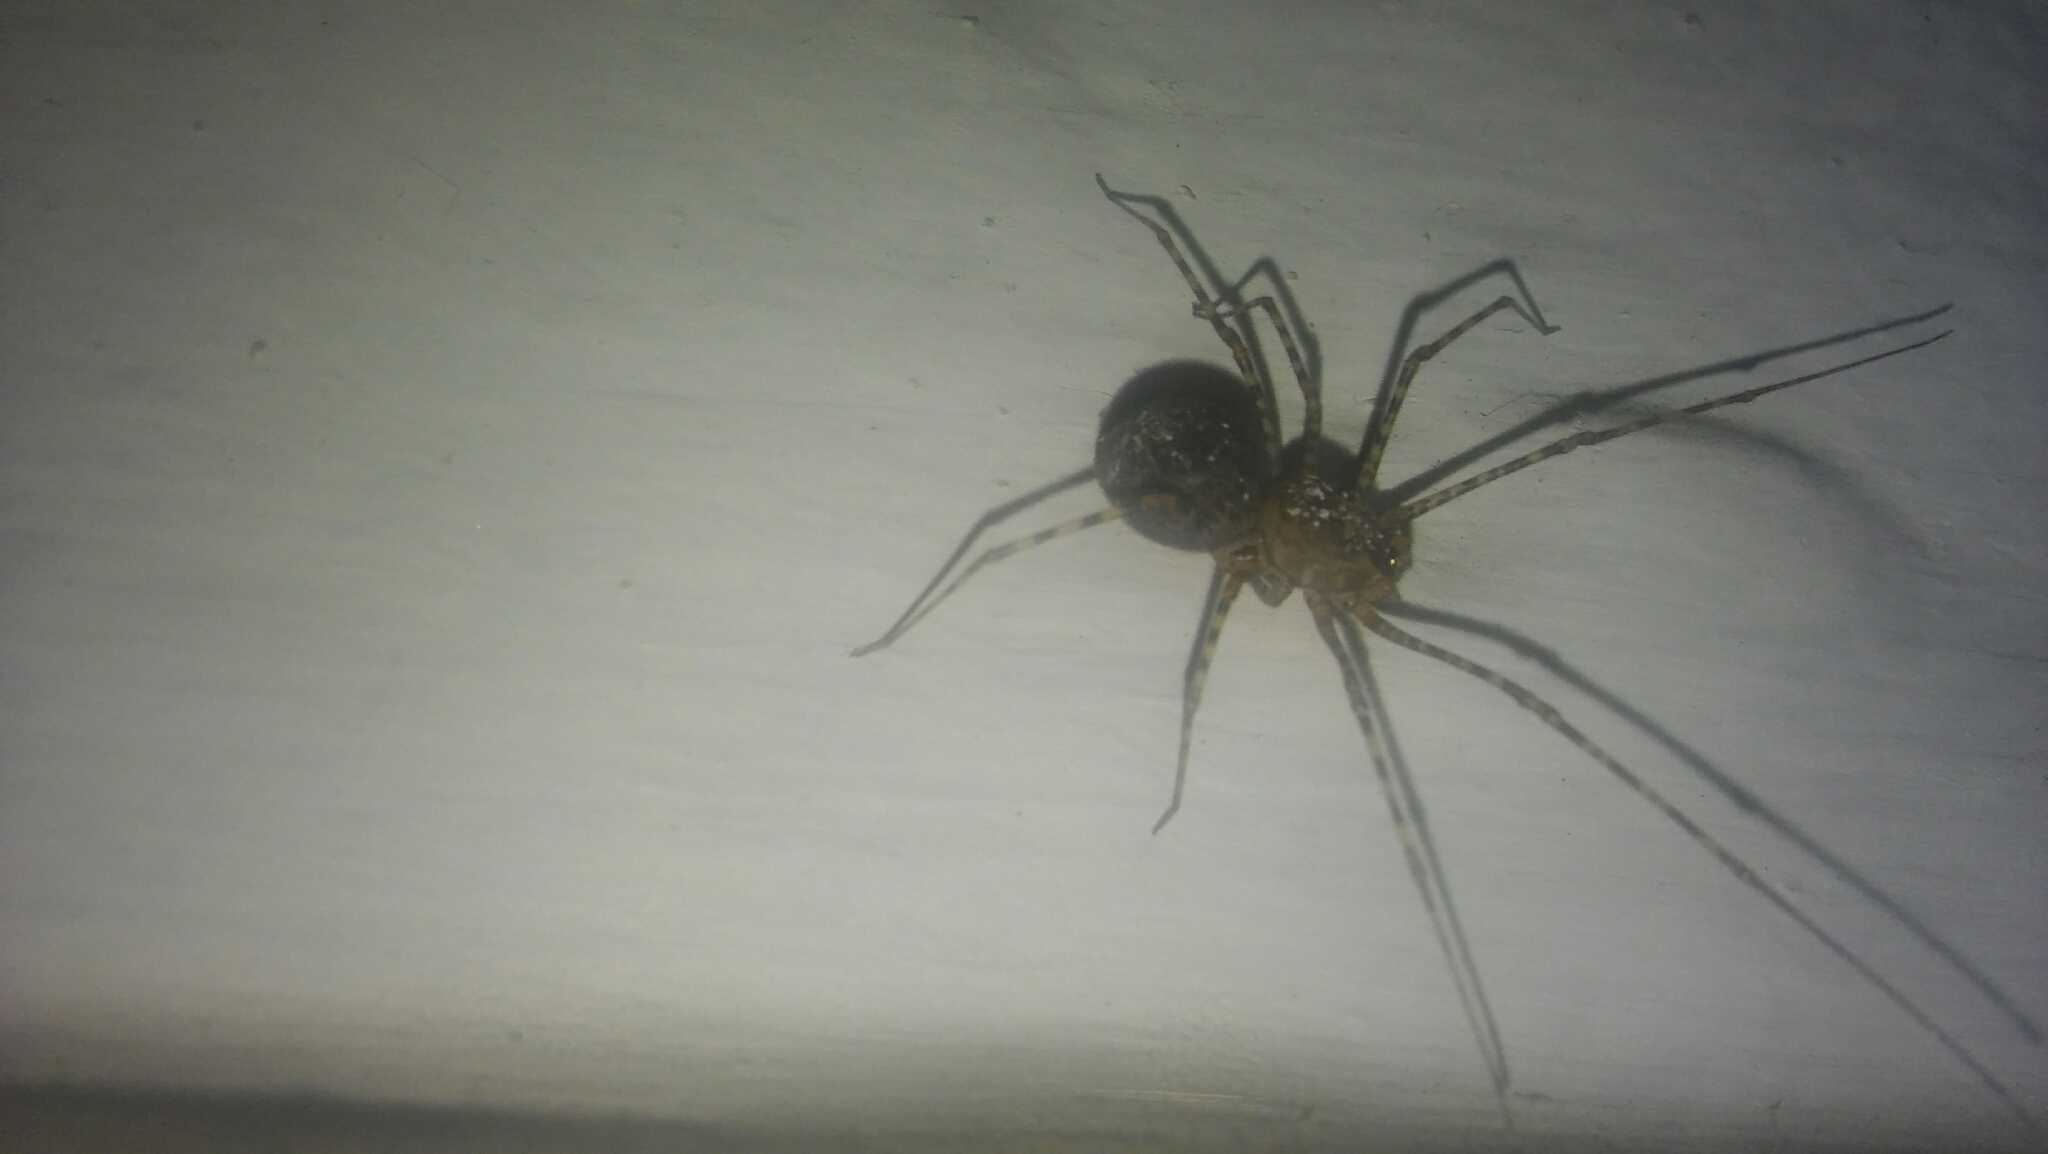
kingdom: Animalia
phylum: Arthropoda
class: Arachnida
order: Araneae
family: Scytodidae
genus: Scytodes
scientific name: Scytodes globula
